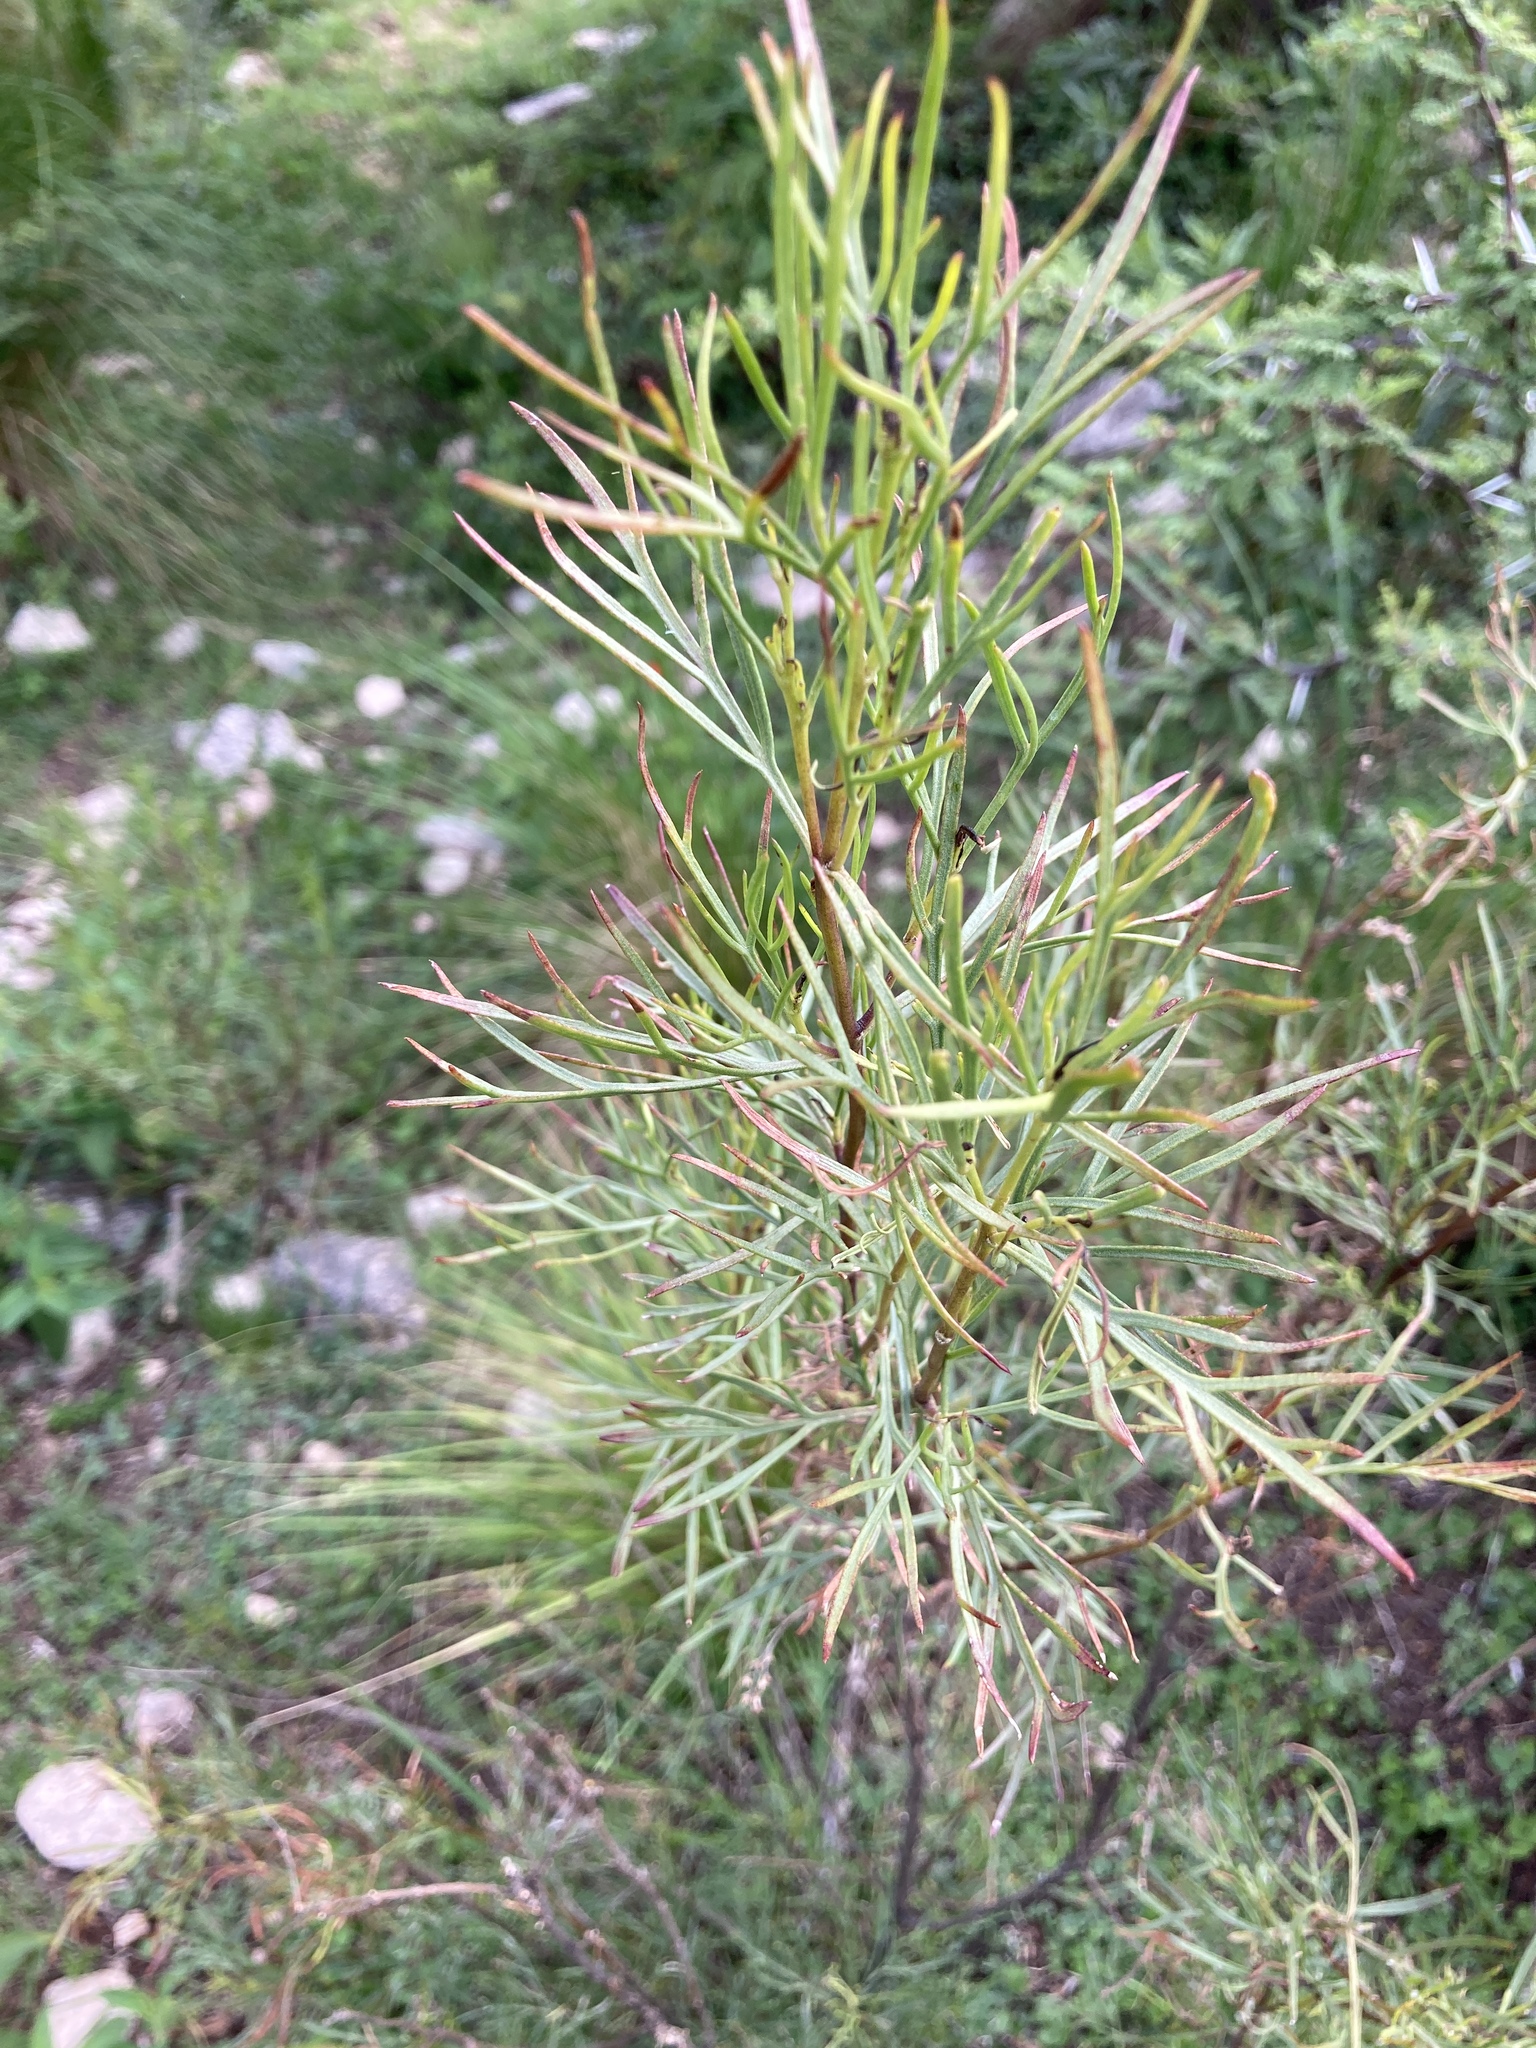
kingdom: Plantae
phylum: Tracheophyta
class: Magnoliopsida
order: Asterales
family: Asteraceae
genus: Acanthostyles
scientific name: Acanthostyles buniifolius
